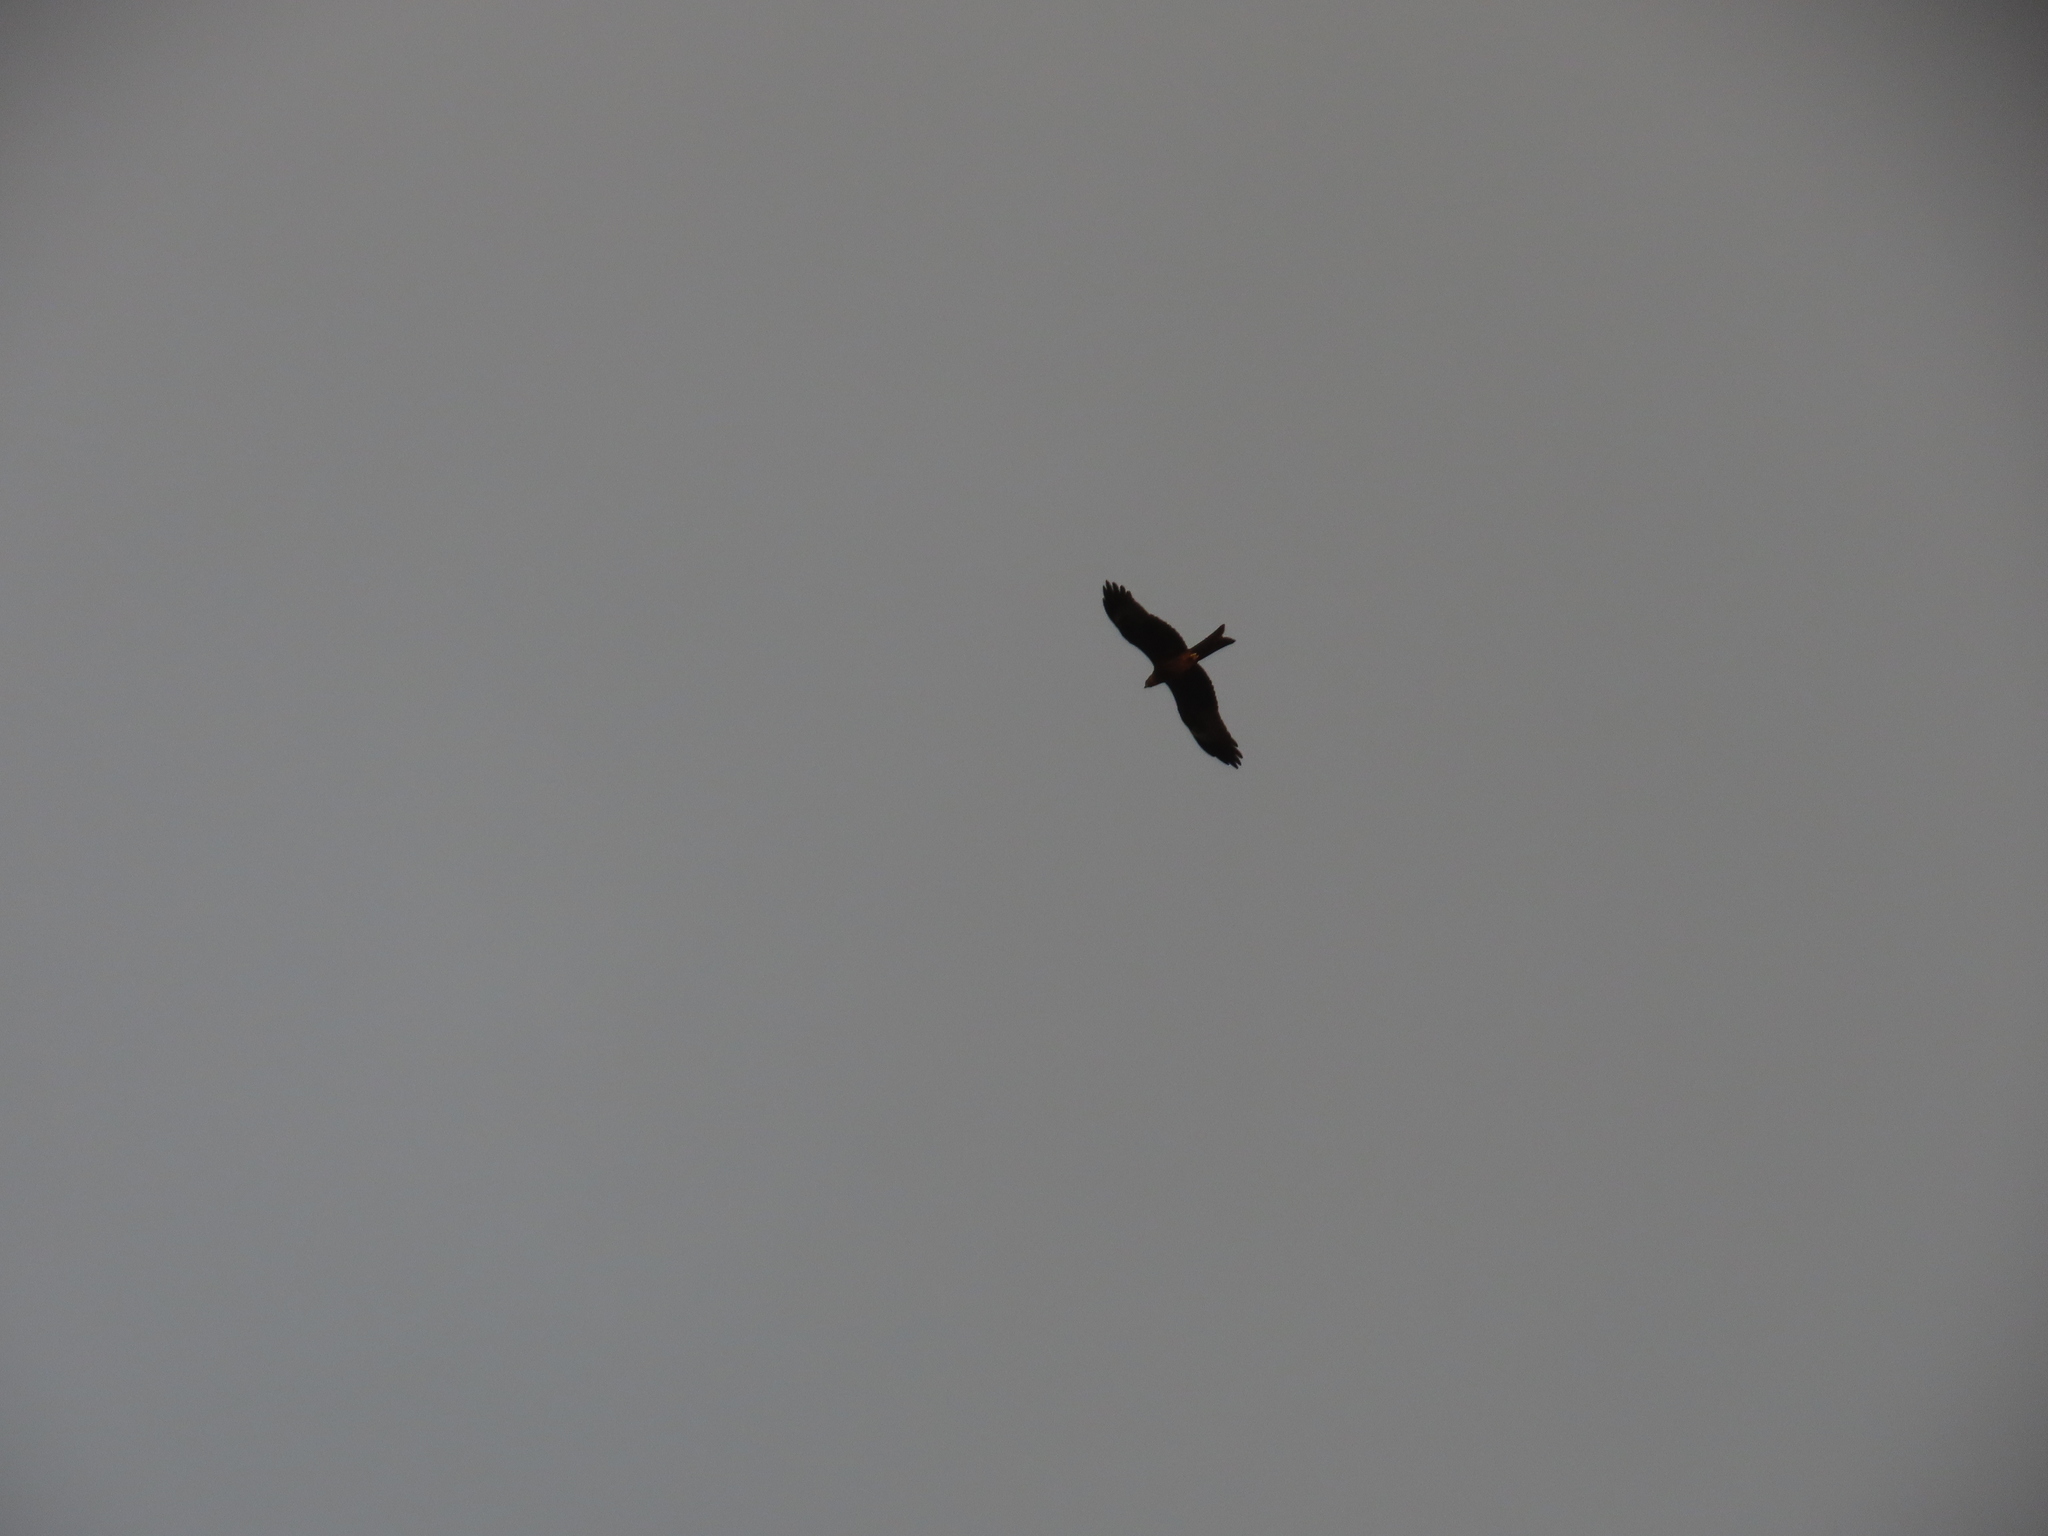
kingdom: Animalia
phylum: Chordata
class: Aves
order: Accipitriformes
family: Accipitridae
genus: Milvus
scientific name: Milvus migrans
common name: Black kite
